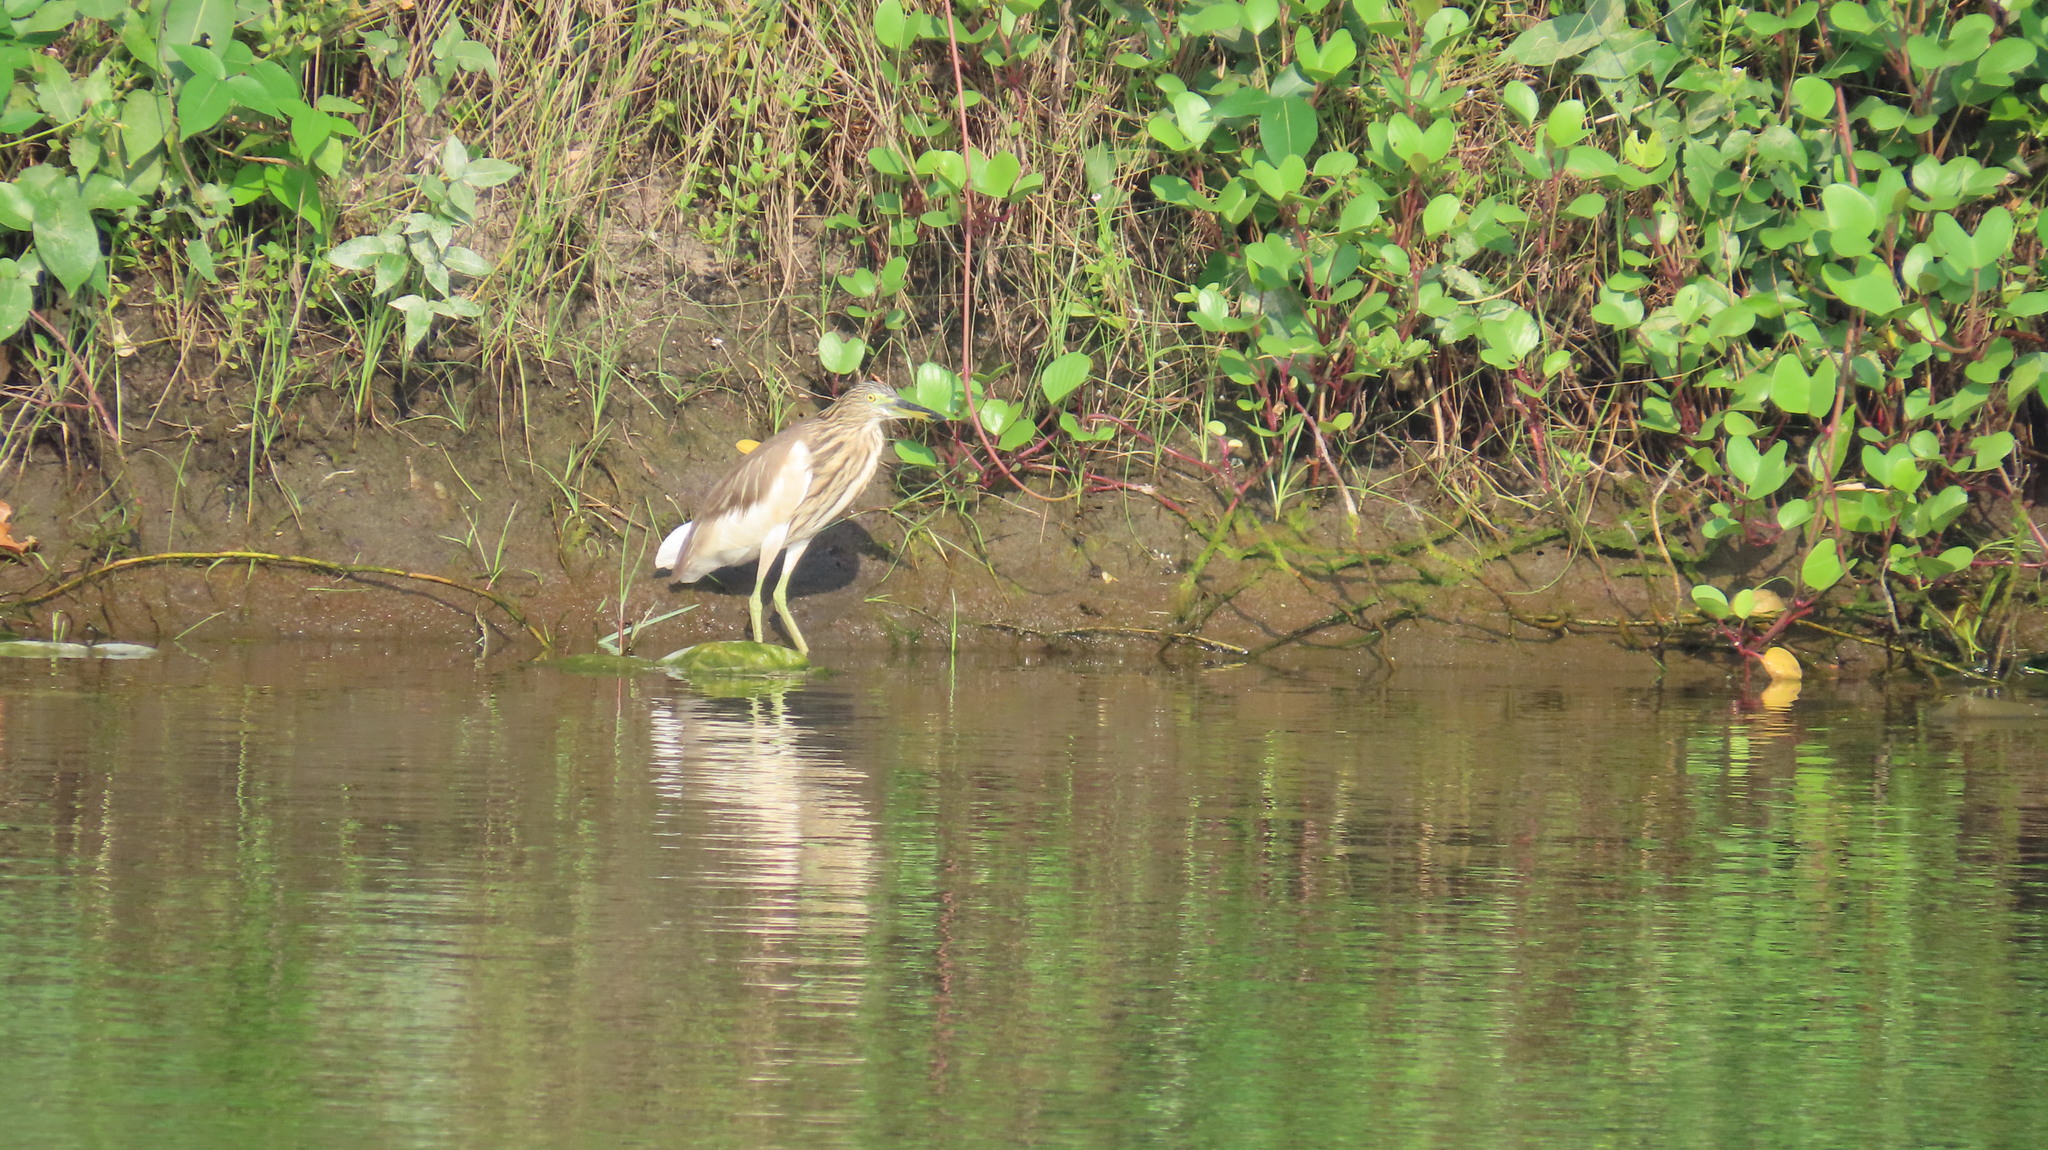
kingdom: Animalia
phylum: Chordata
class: Aves
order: Pelecaniformes
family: Ardeidae
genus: Ardeola
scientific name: Ardeola grayii
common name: Indian pond heron
